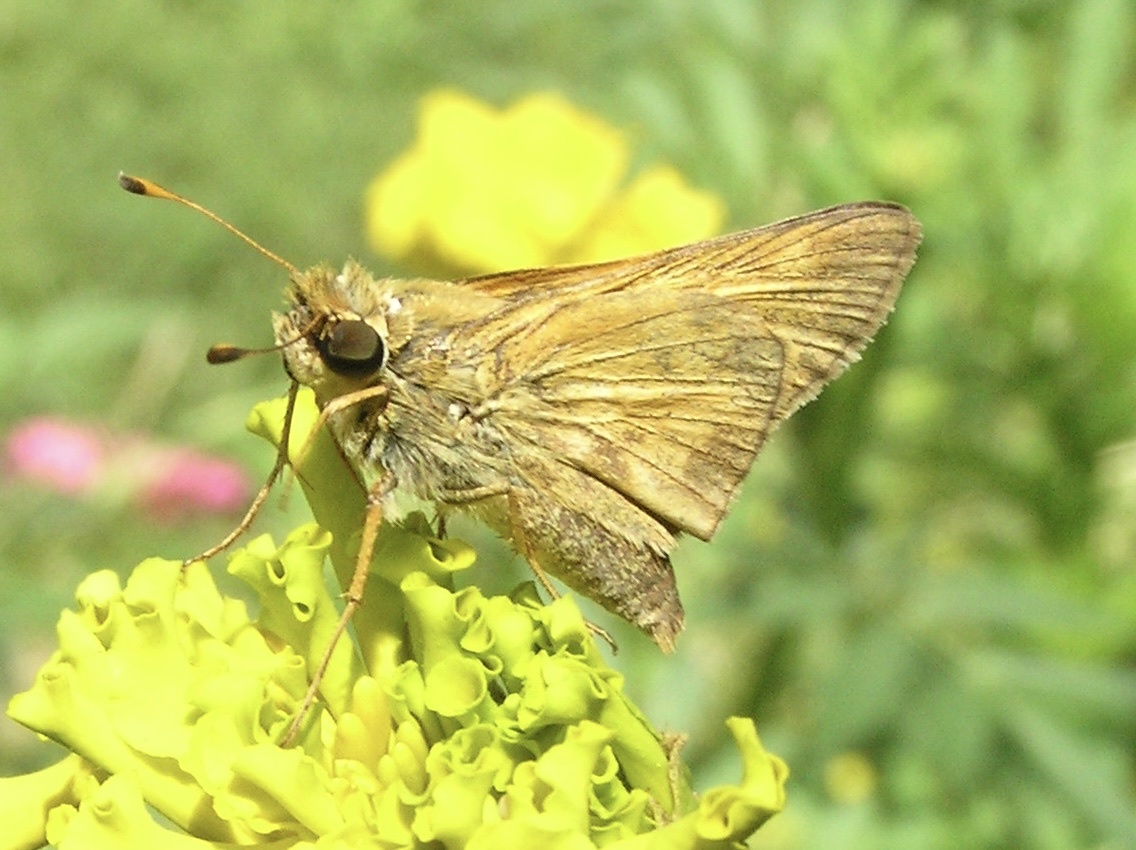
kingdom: Animalia
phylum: Arthropoda
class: Insecta
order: Lepidoptera
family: Hesperiidae
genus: Atalopedes
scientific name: Atalopedes
